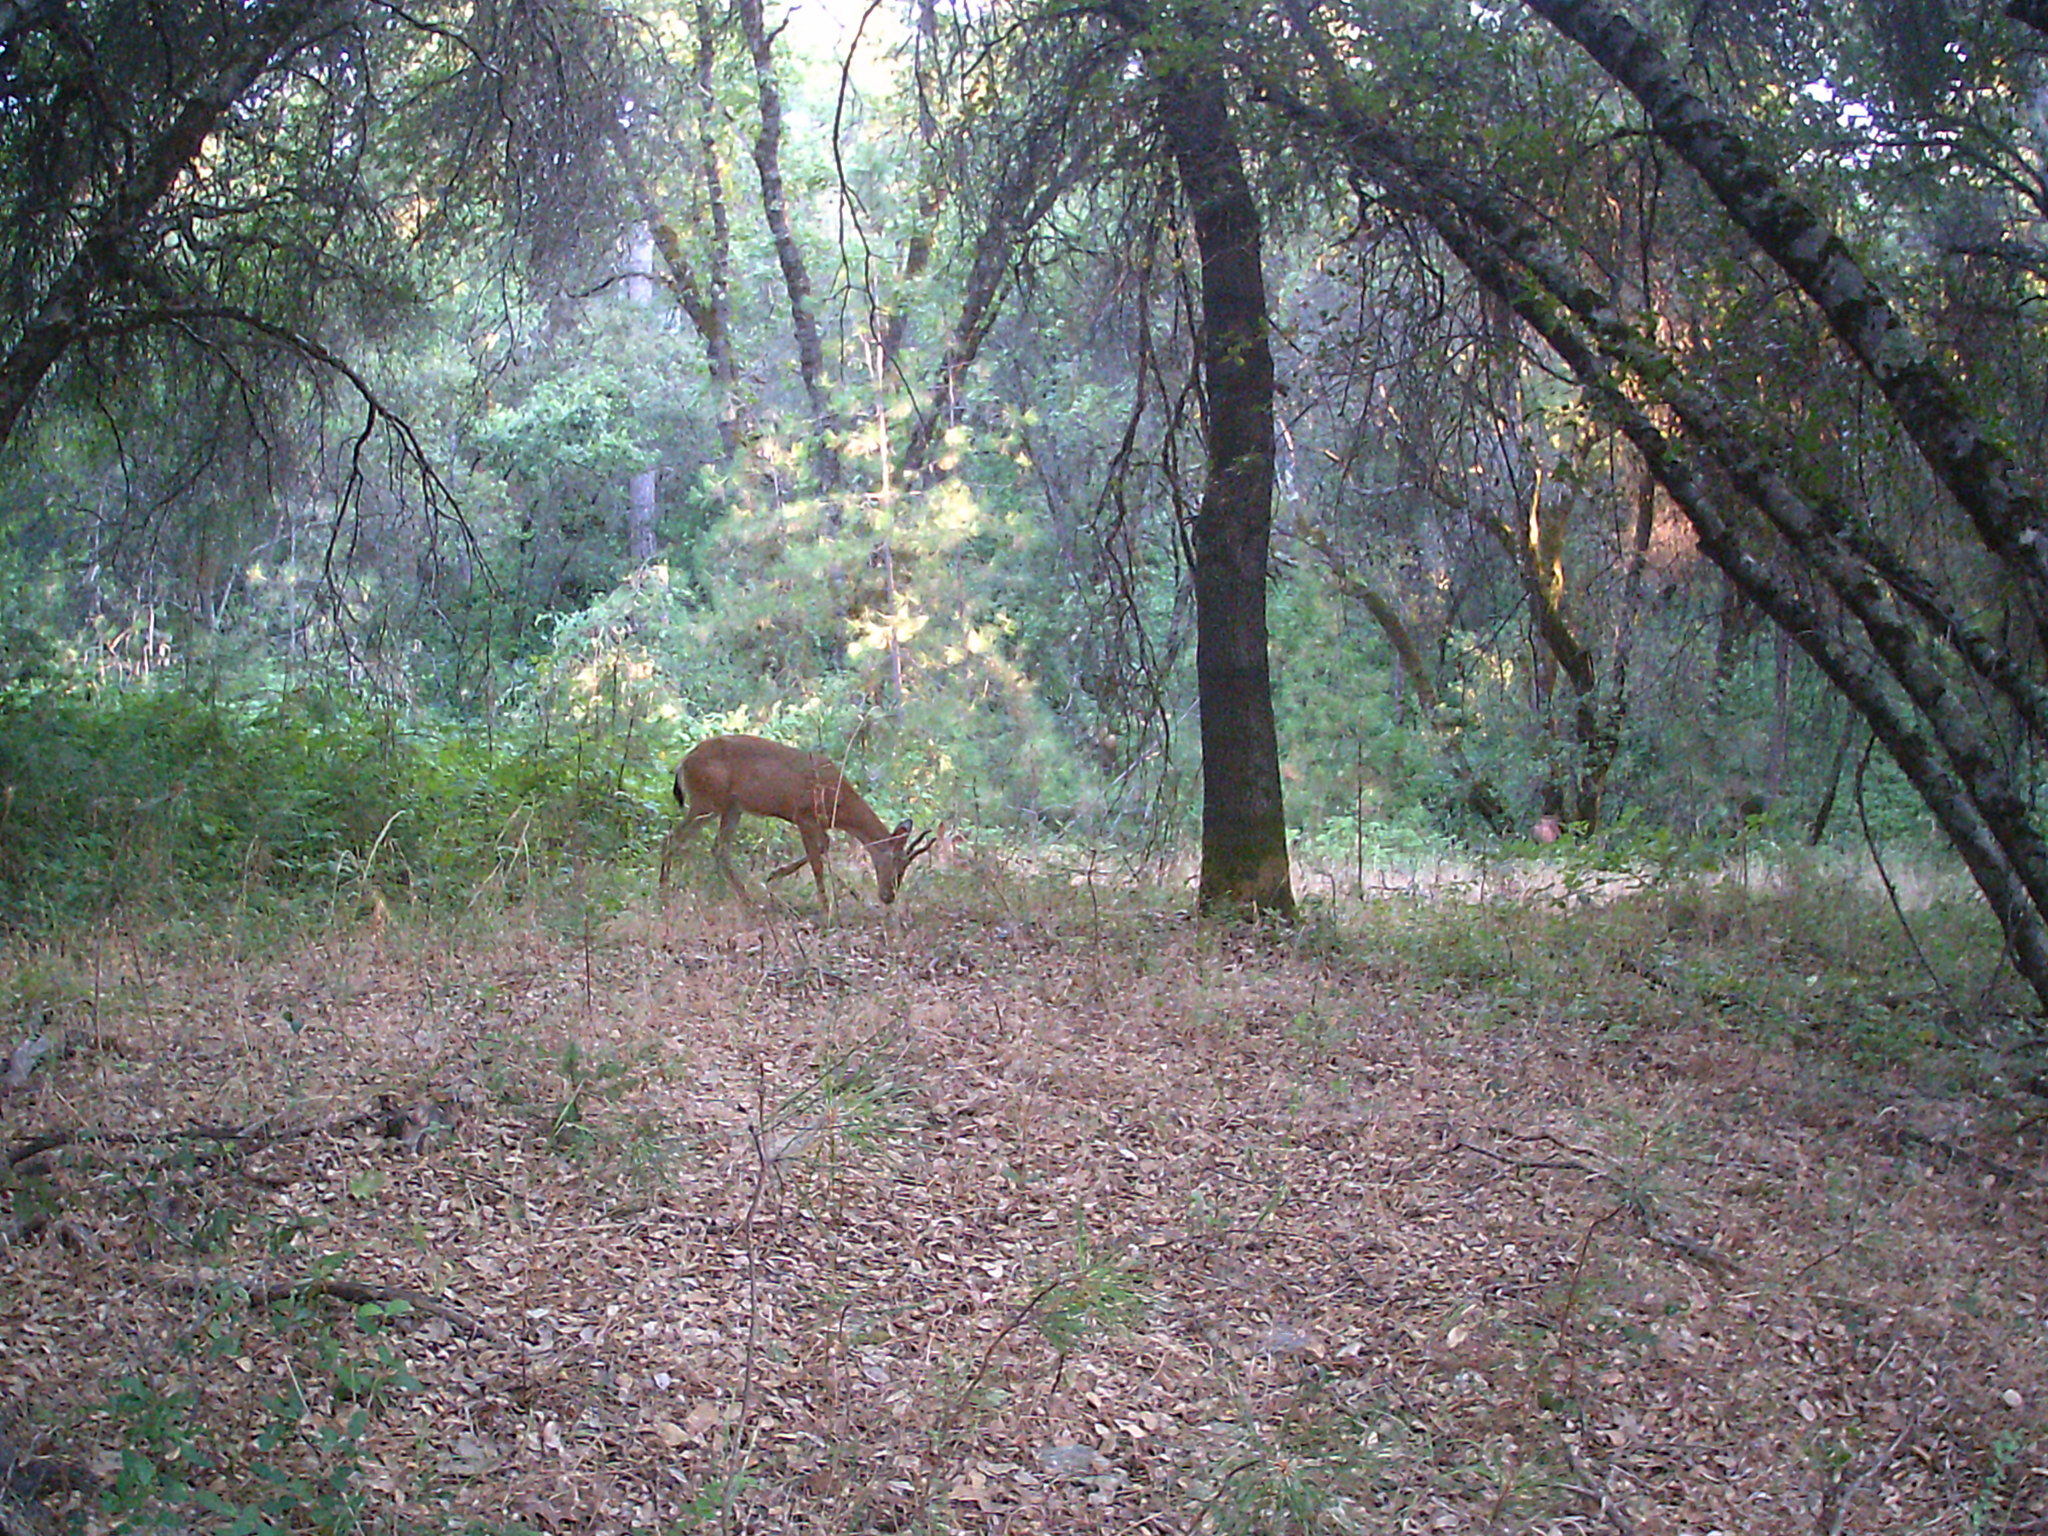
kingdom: Animalia
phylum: Chordata
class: Mammalia
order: Artiodactyla
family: Cervidae
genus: Odocoileus
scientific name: Odocoileus hemionus
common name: Mule deer
